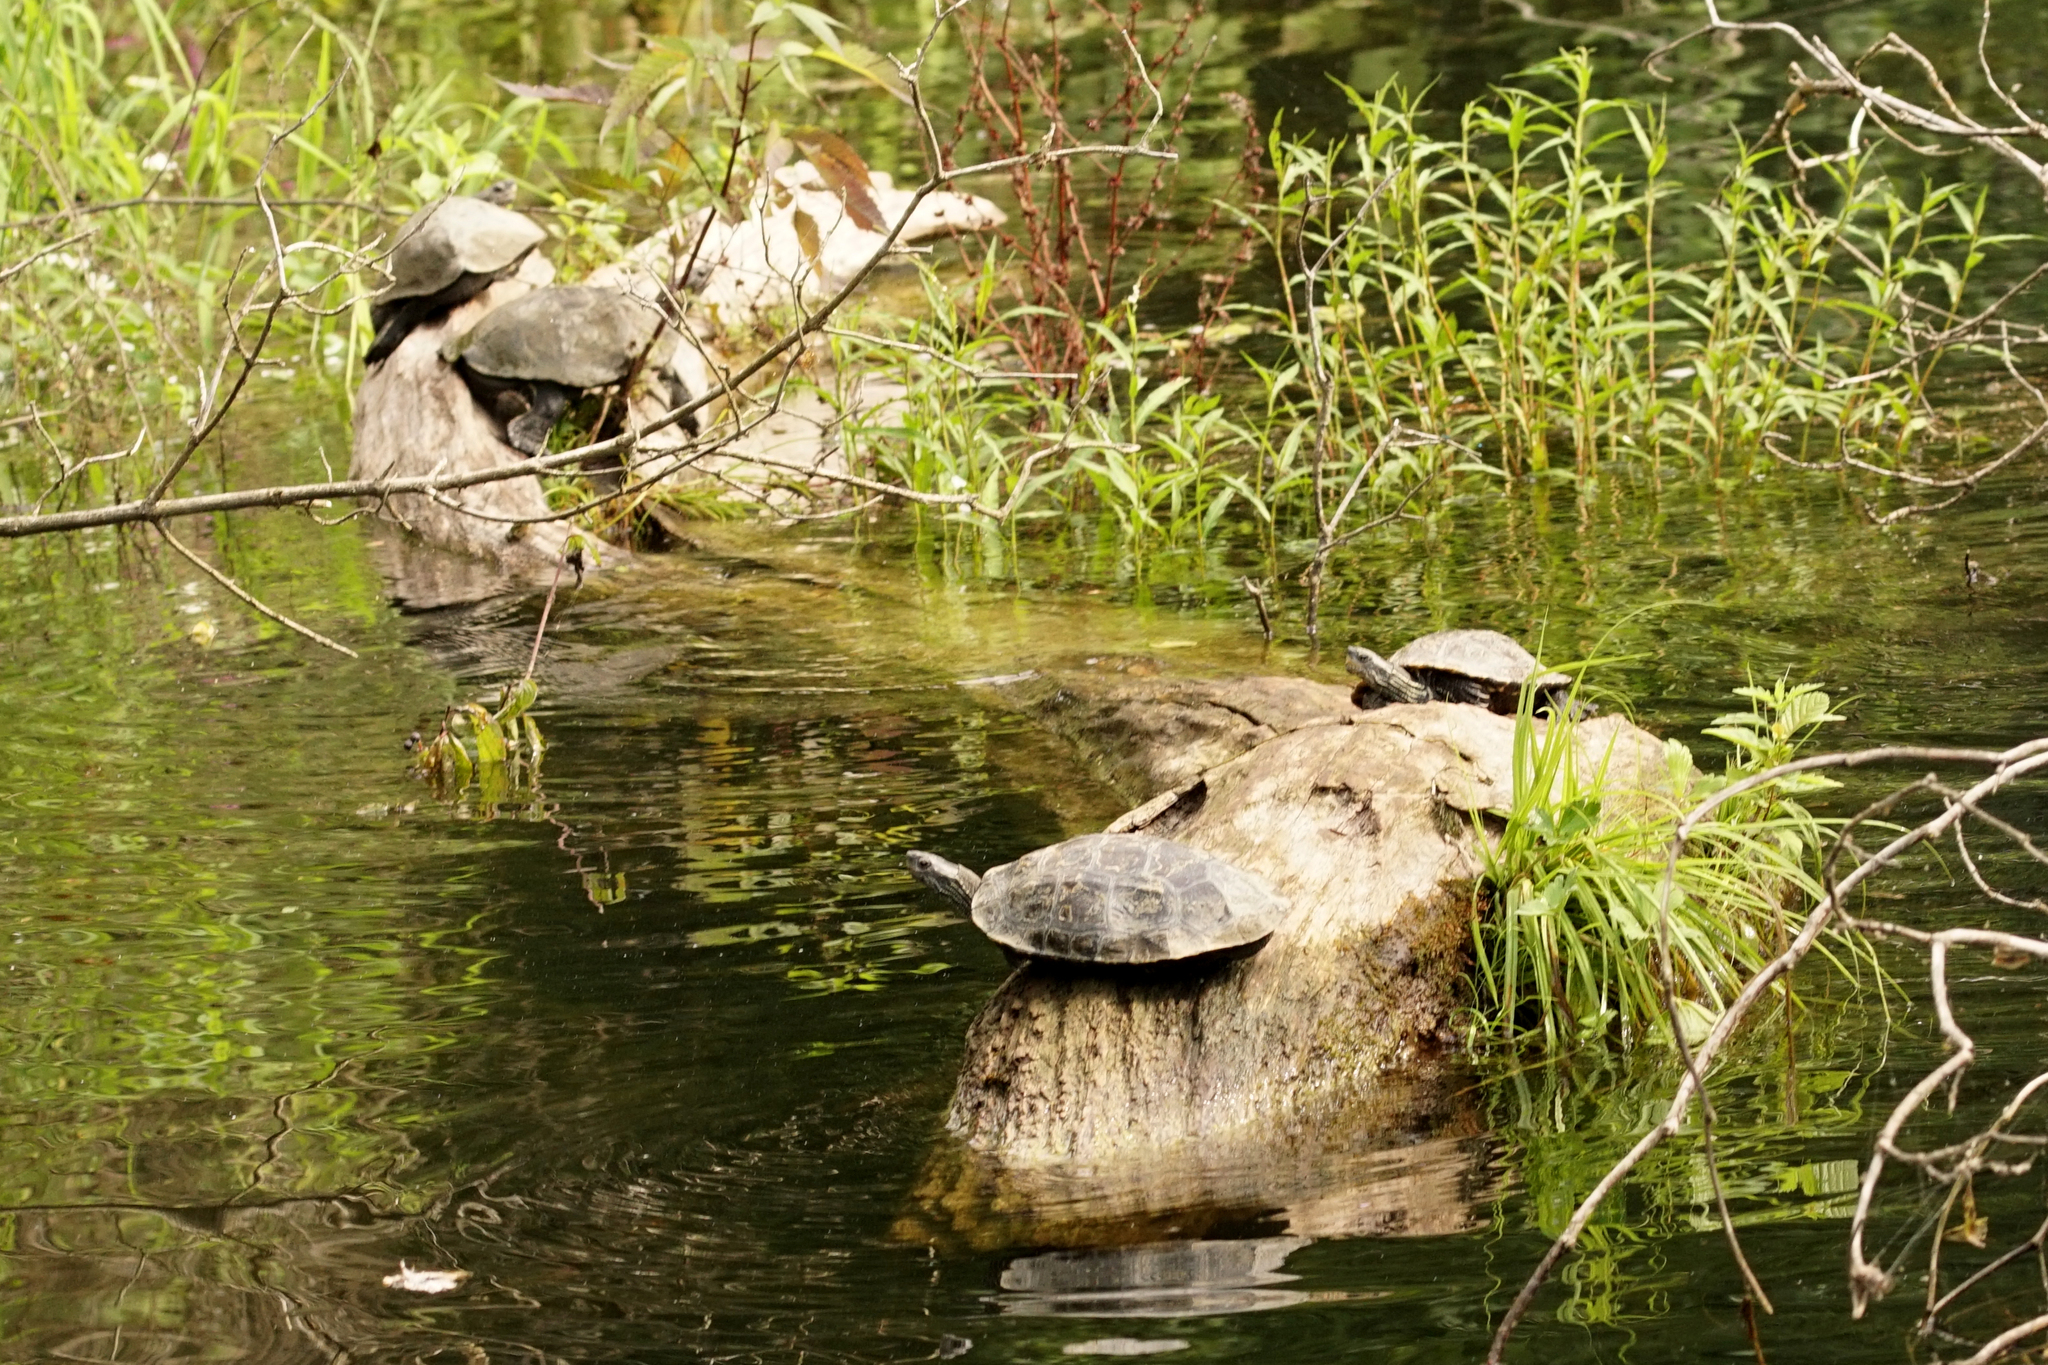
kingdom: Animalia
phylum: Chordata
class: Testudines
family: Geoemydidae
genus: Mauremys
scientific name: Mauremys rivulata
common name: Western caspian turtle
